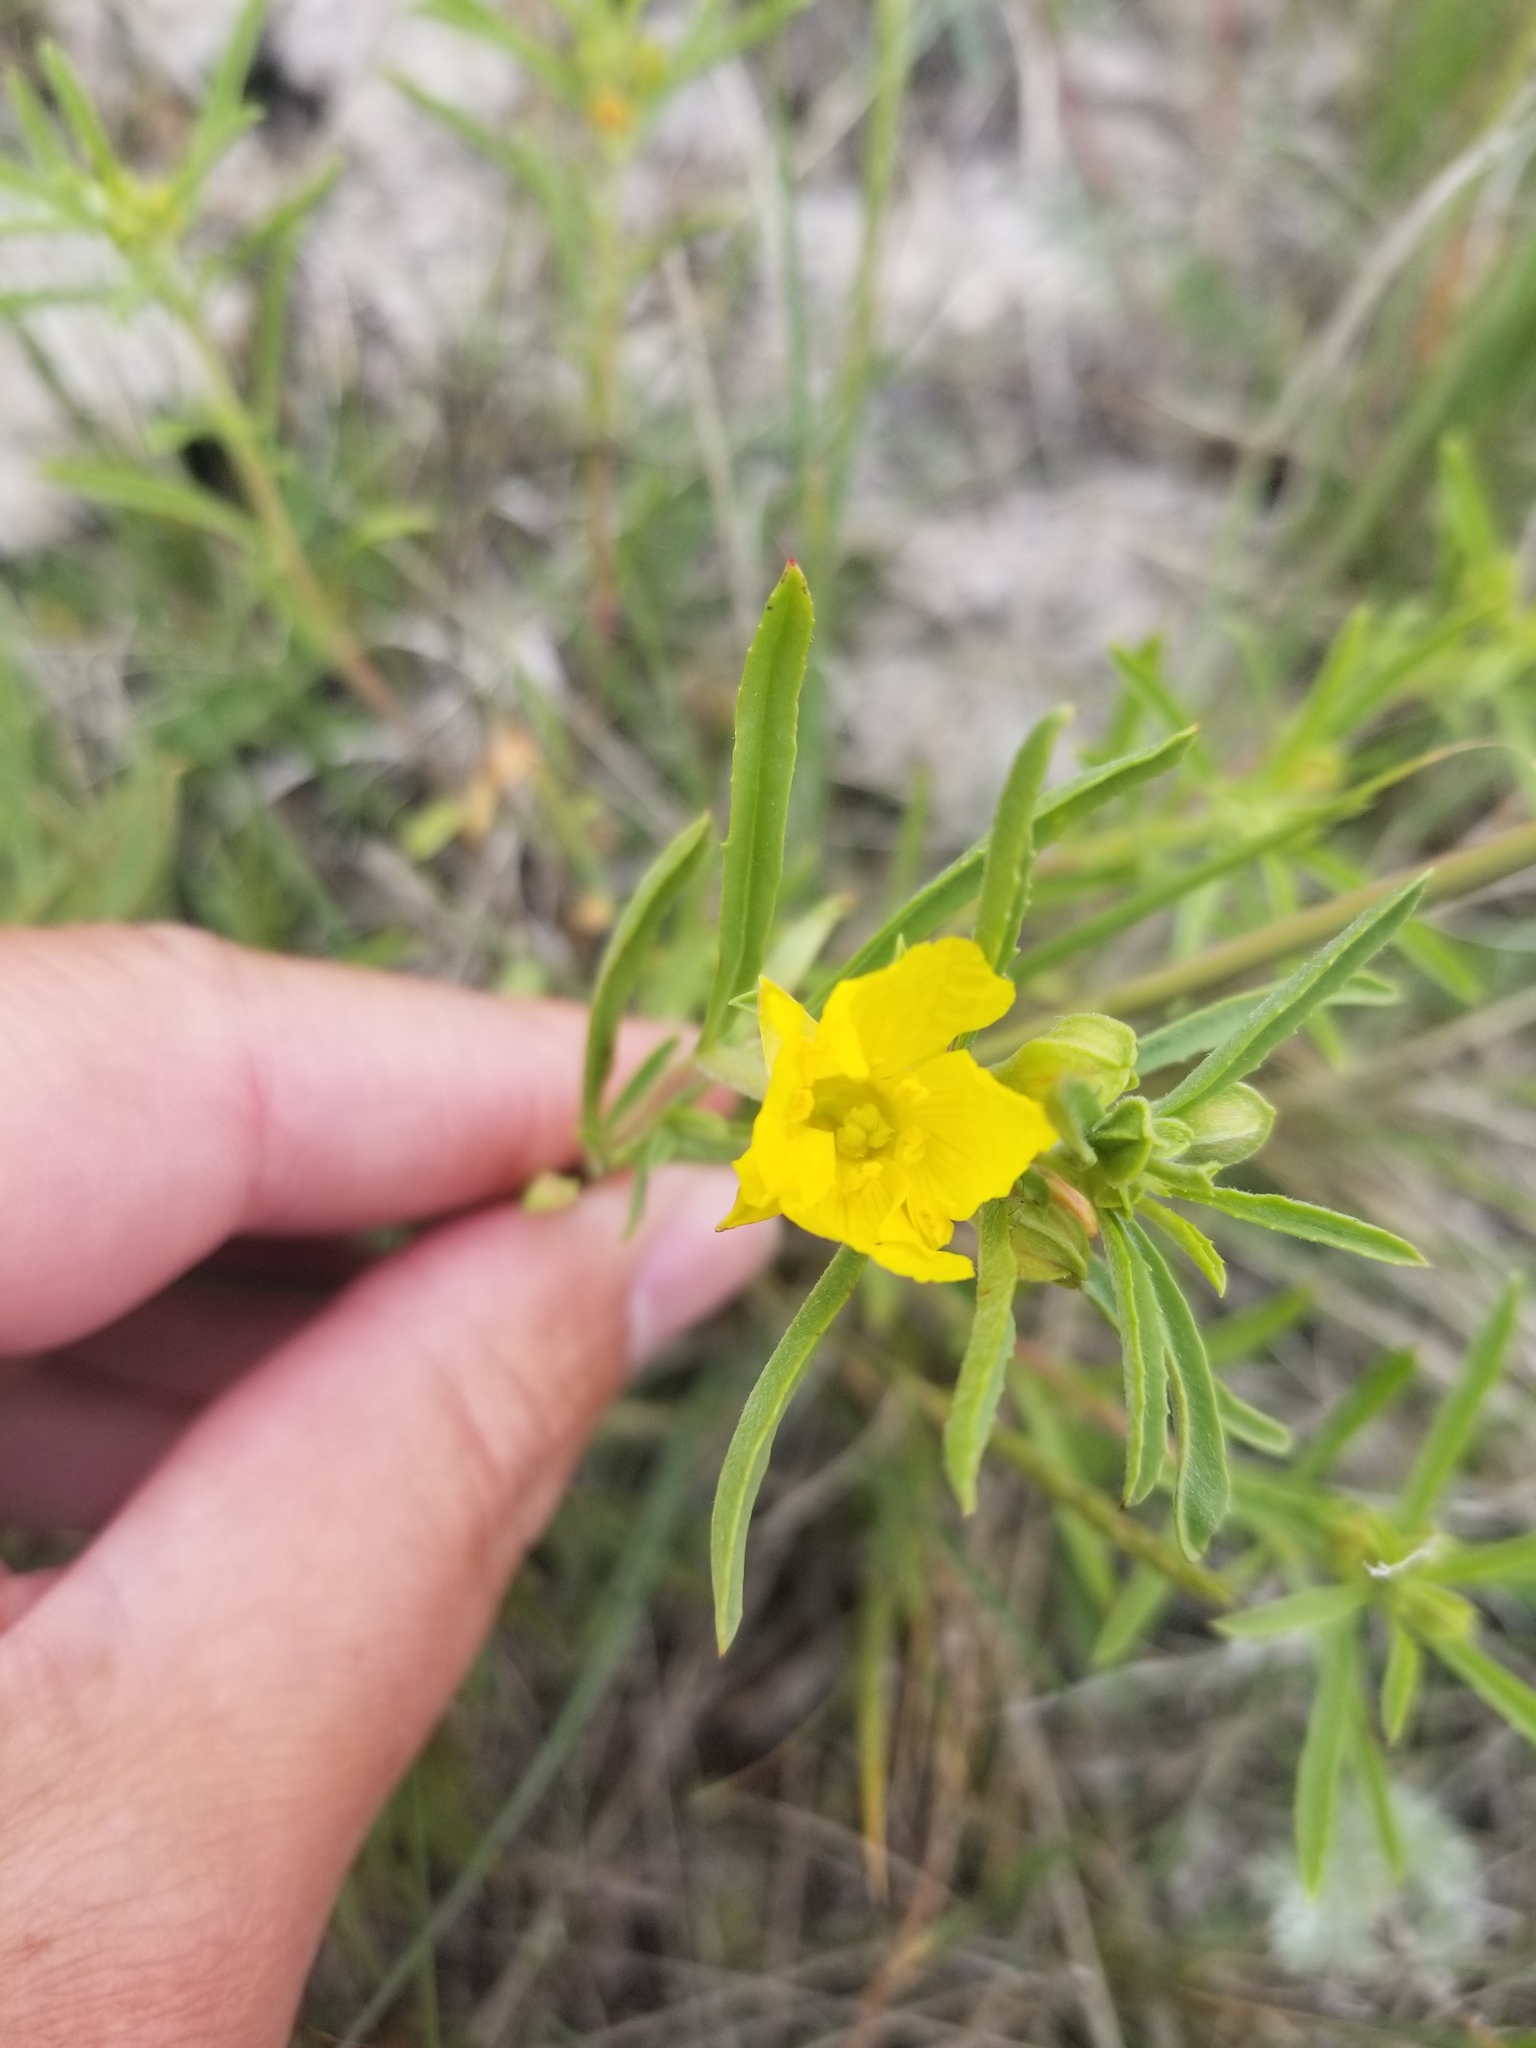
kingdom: Plantae
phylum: Tracheophyta
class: Magnoliopsida
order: Myrtales
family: Onagraceae
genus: Oenothera
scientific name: Oenothera serrulata
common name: Half-shrub calylophus
